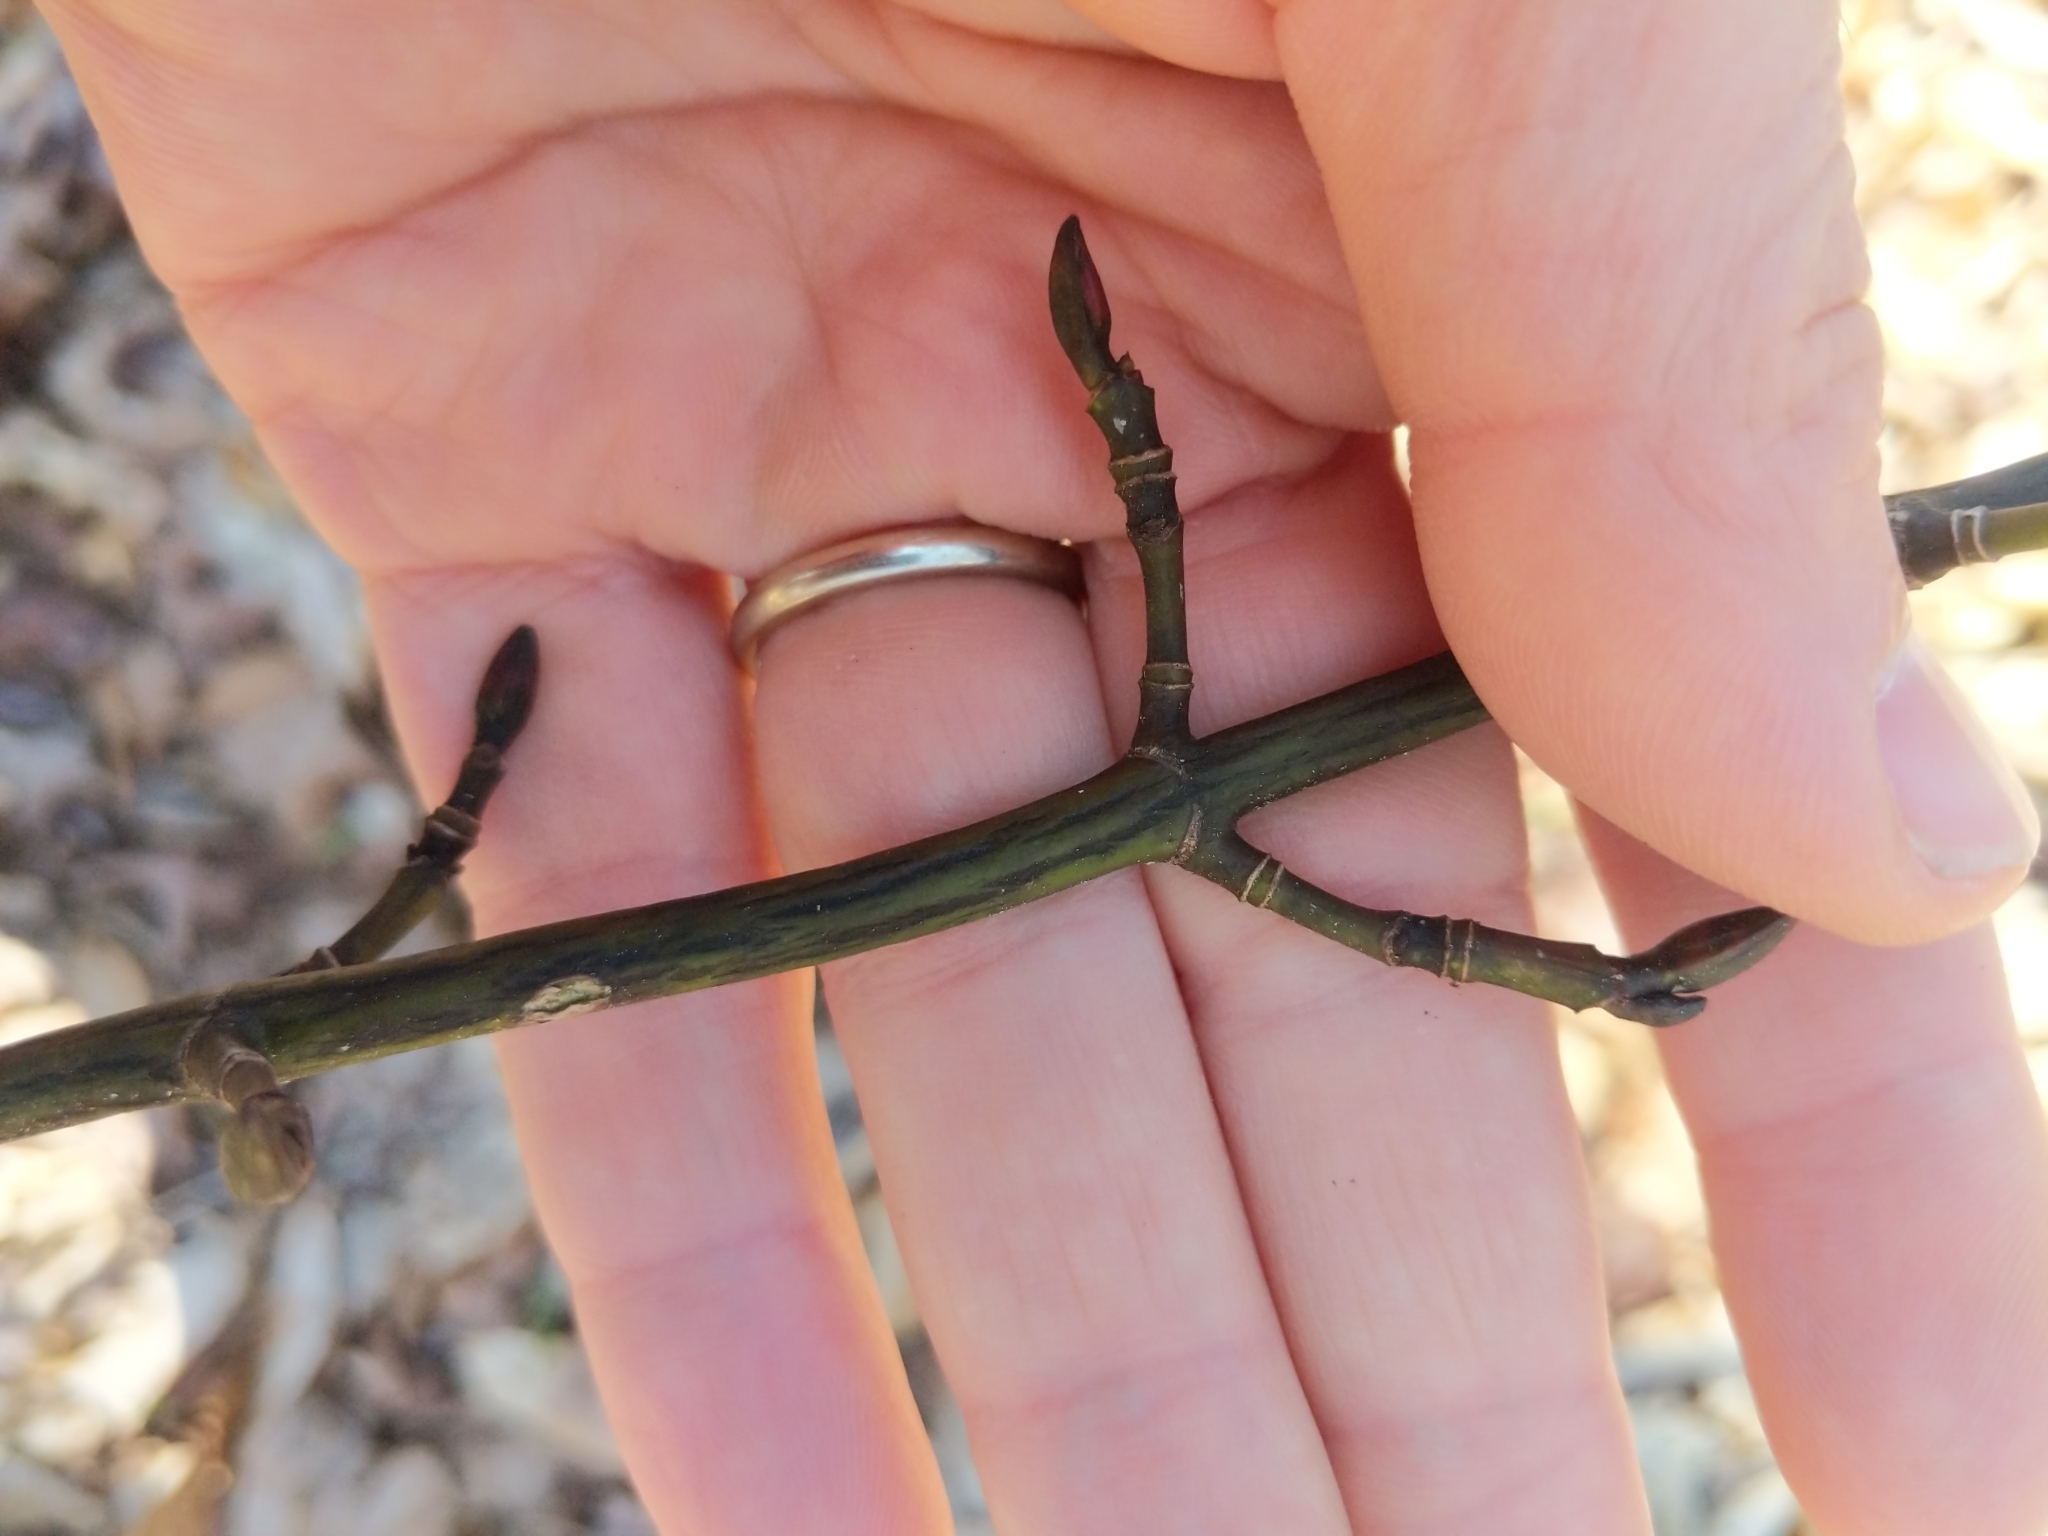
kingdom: Plantae
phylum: Tracheophyta
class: Magnoliopsida
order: Sapindales
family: Sapindaceae
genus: Acer
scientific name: Acer pensylvanicum
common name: Moosewood
